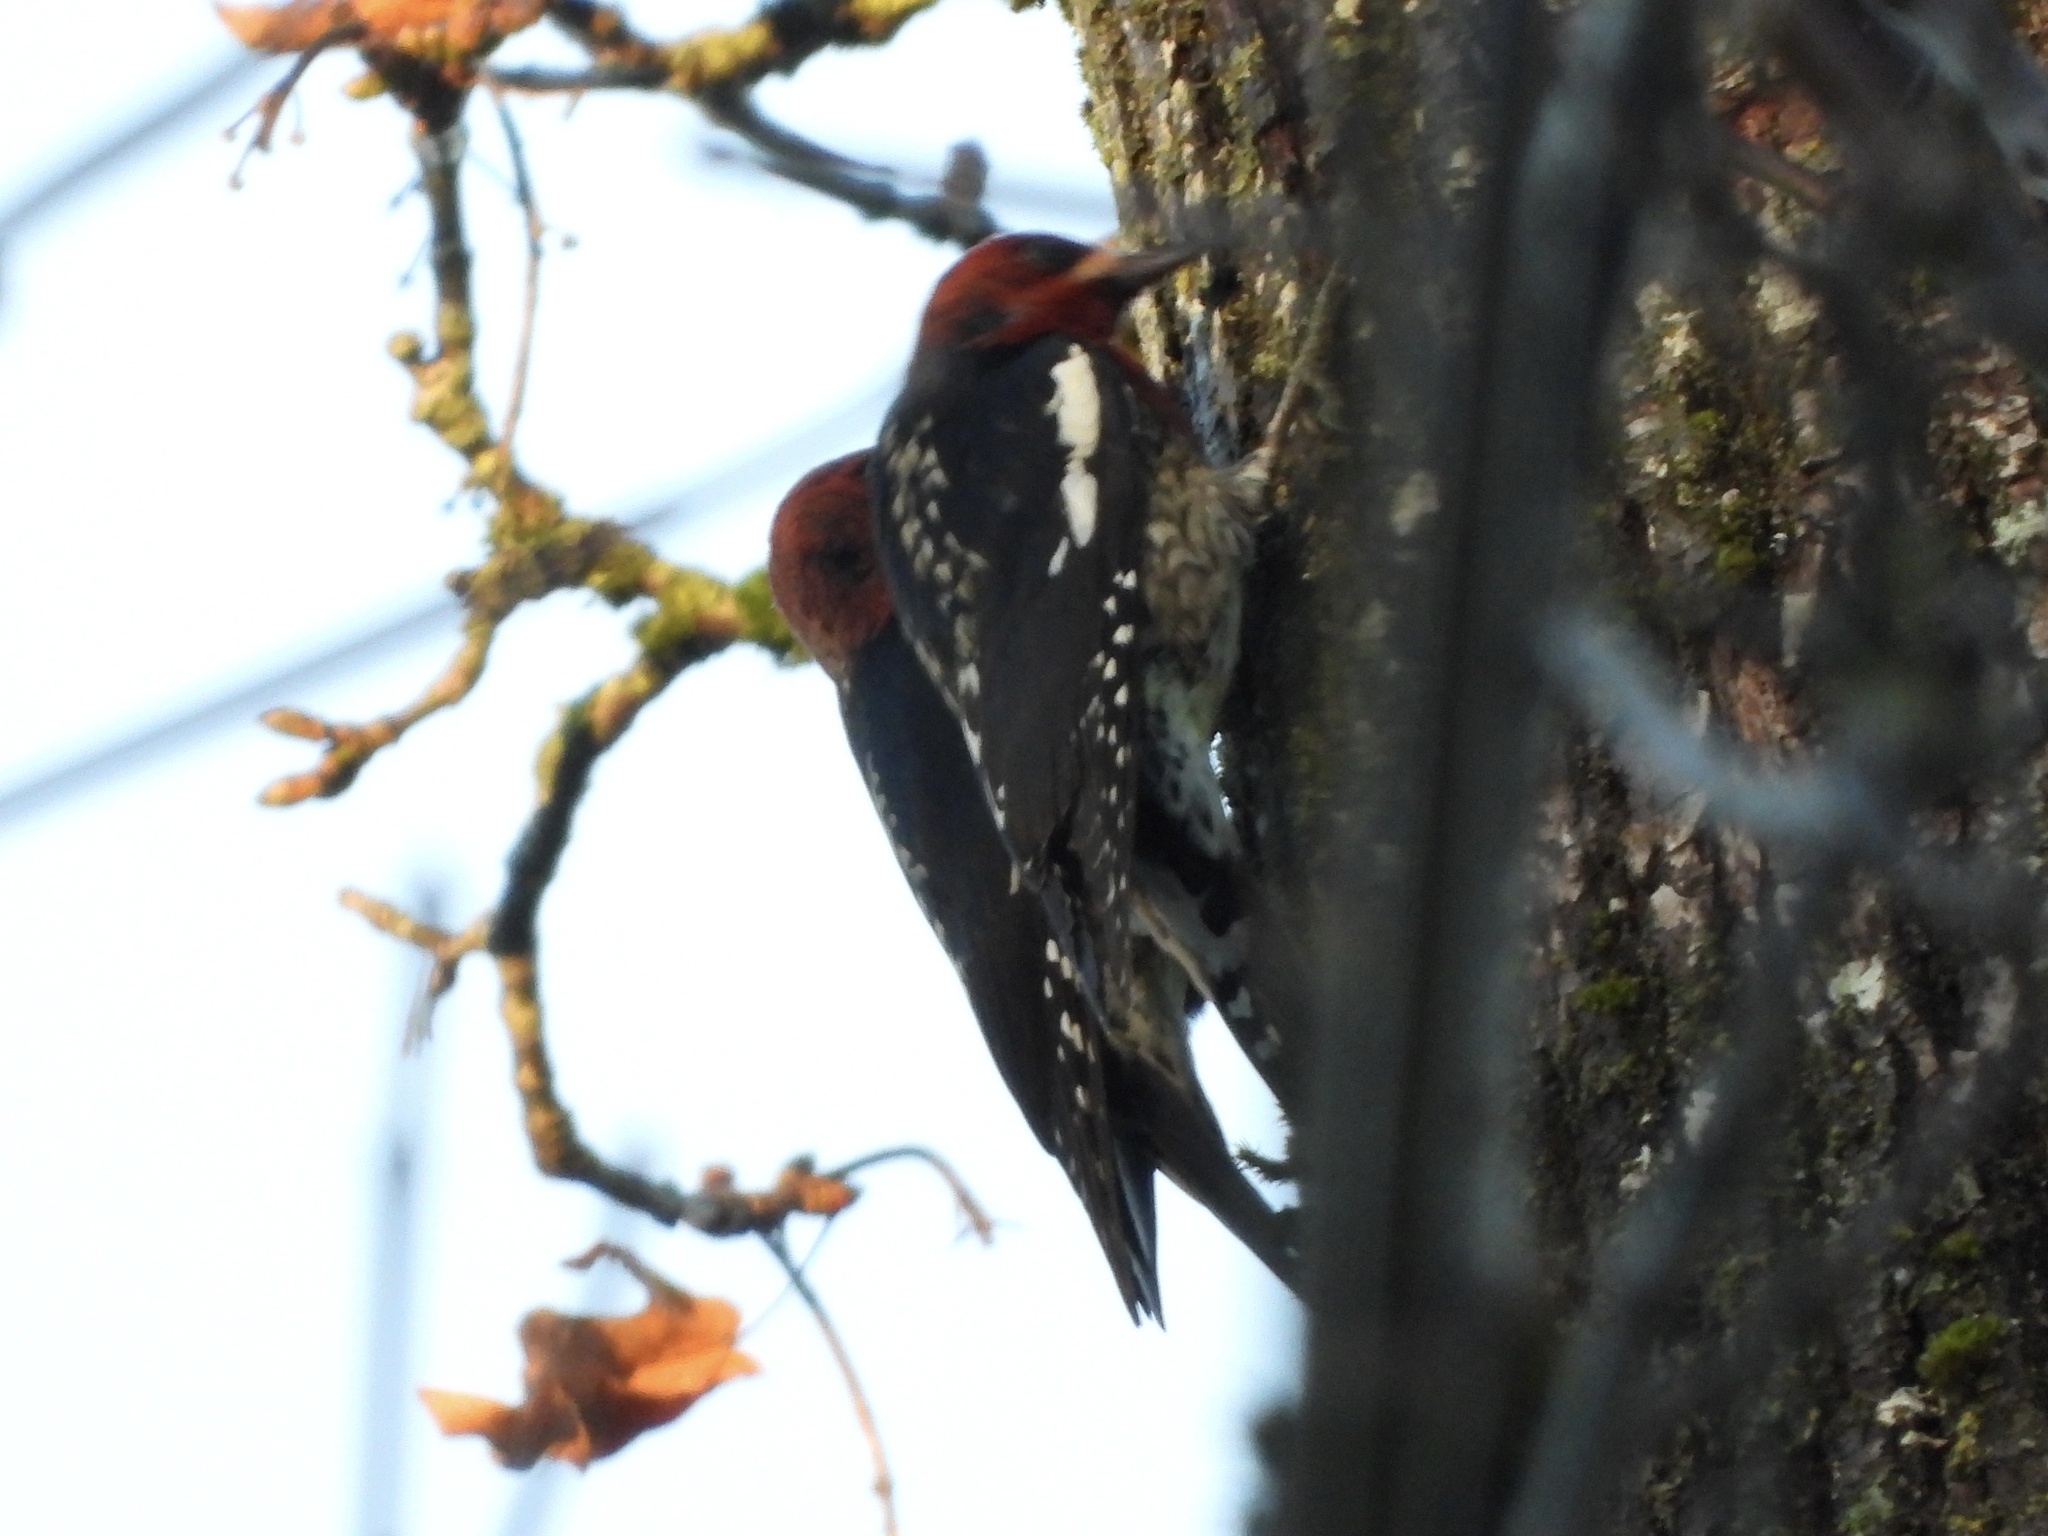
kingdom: Animalia
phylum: Chordata
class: Aves
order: Piciformes
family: Picidae
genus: Sphyrapicus
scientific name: Sphyrapicus ruber
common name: Red-breasted sapsucker
